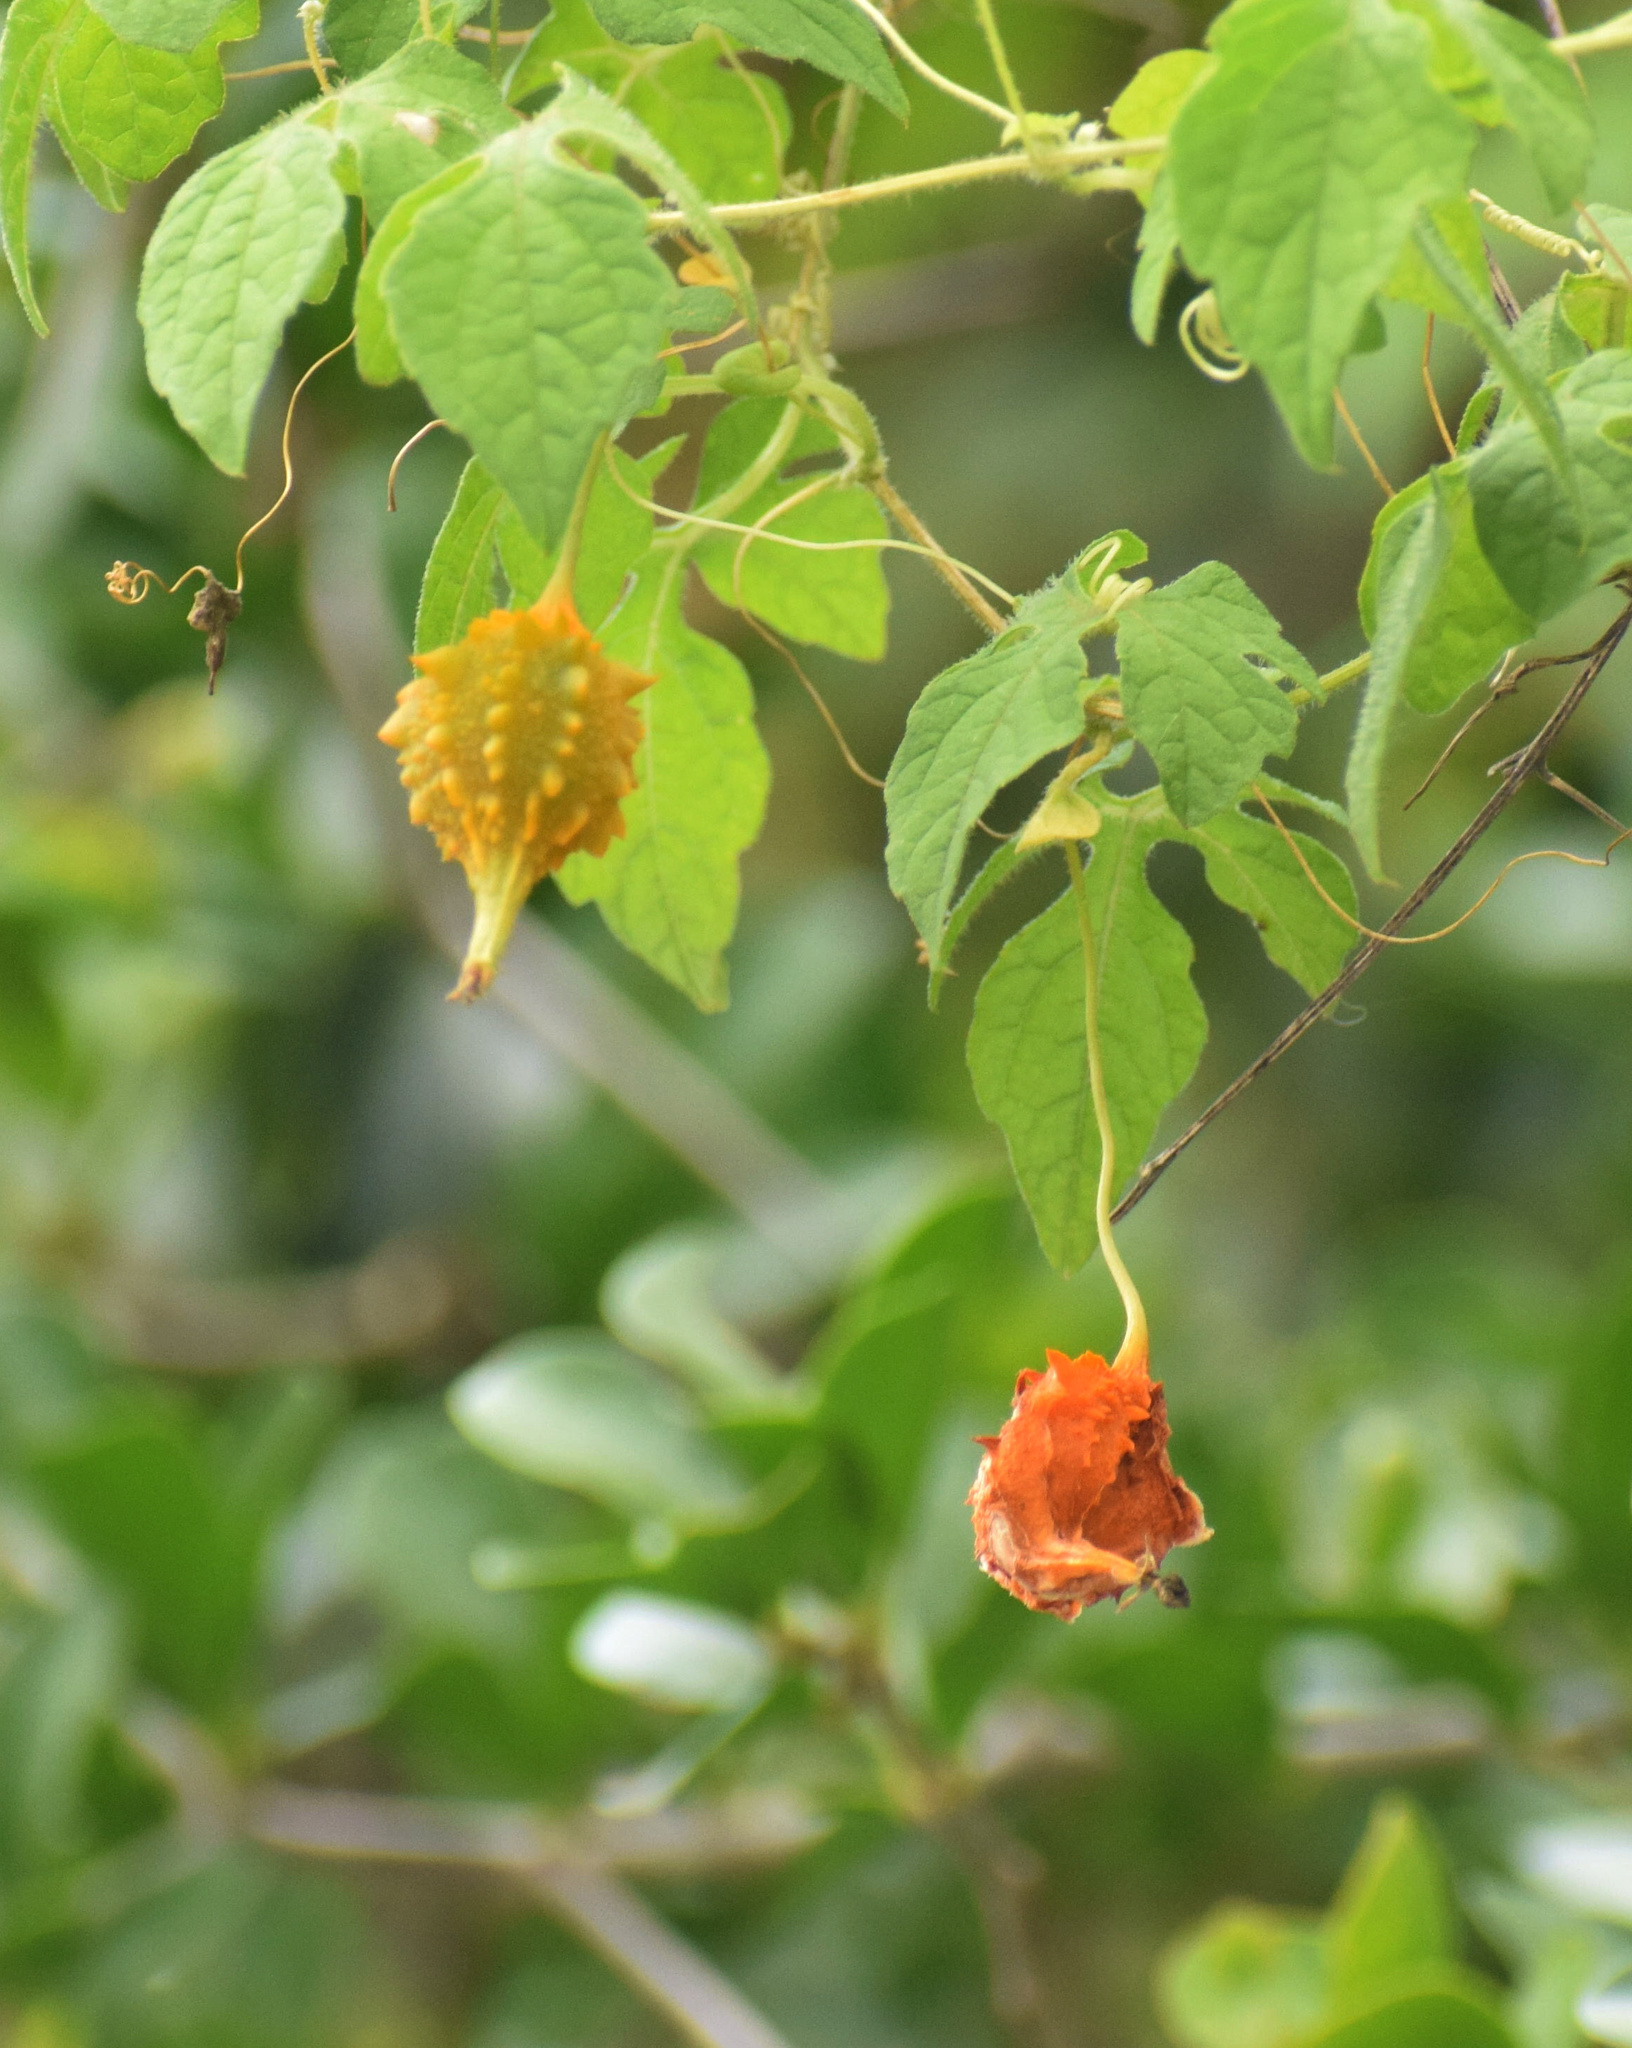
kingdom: Plantae
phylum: Tracheophyta
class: Magnoliopsida
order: Cucurbitales
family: Cucurbitaceae
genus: Momordica
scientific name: Momordica charantia
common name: Balsampear
